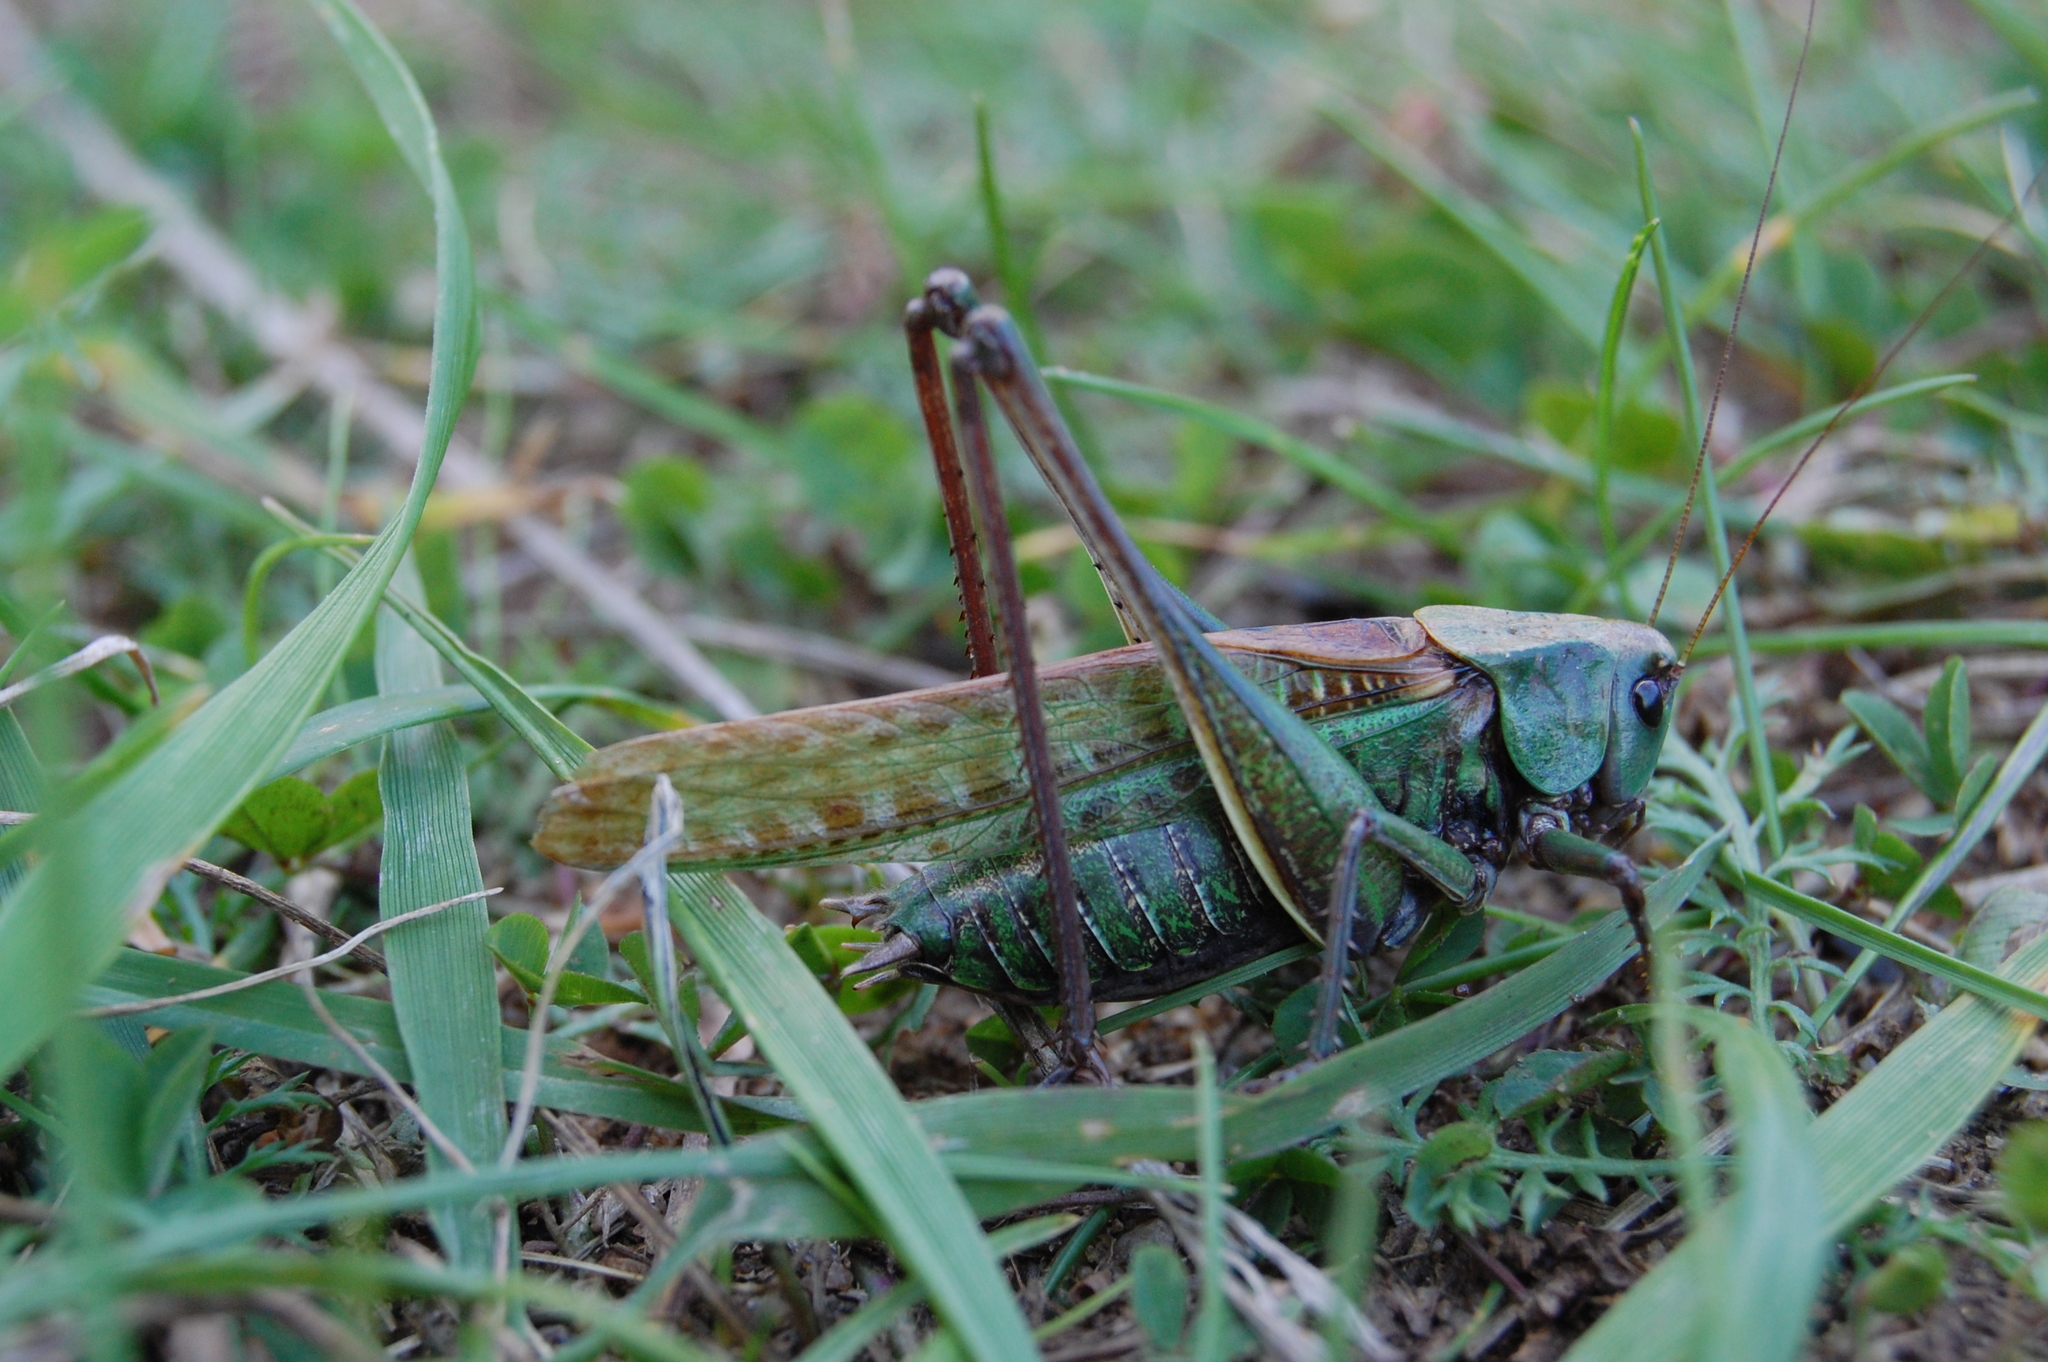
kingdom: Animalia
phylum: Arthropoda
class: Insecta
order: Orthoptera
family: Tettigoniidae
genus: Decticus
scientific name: Decticus verrucivorus
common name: Wart-biter
